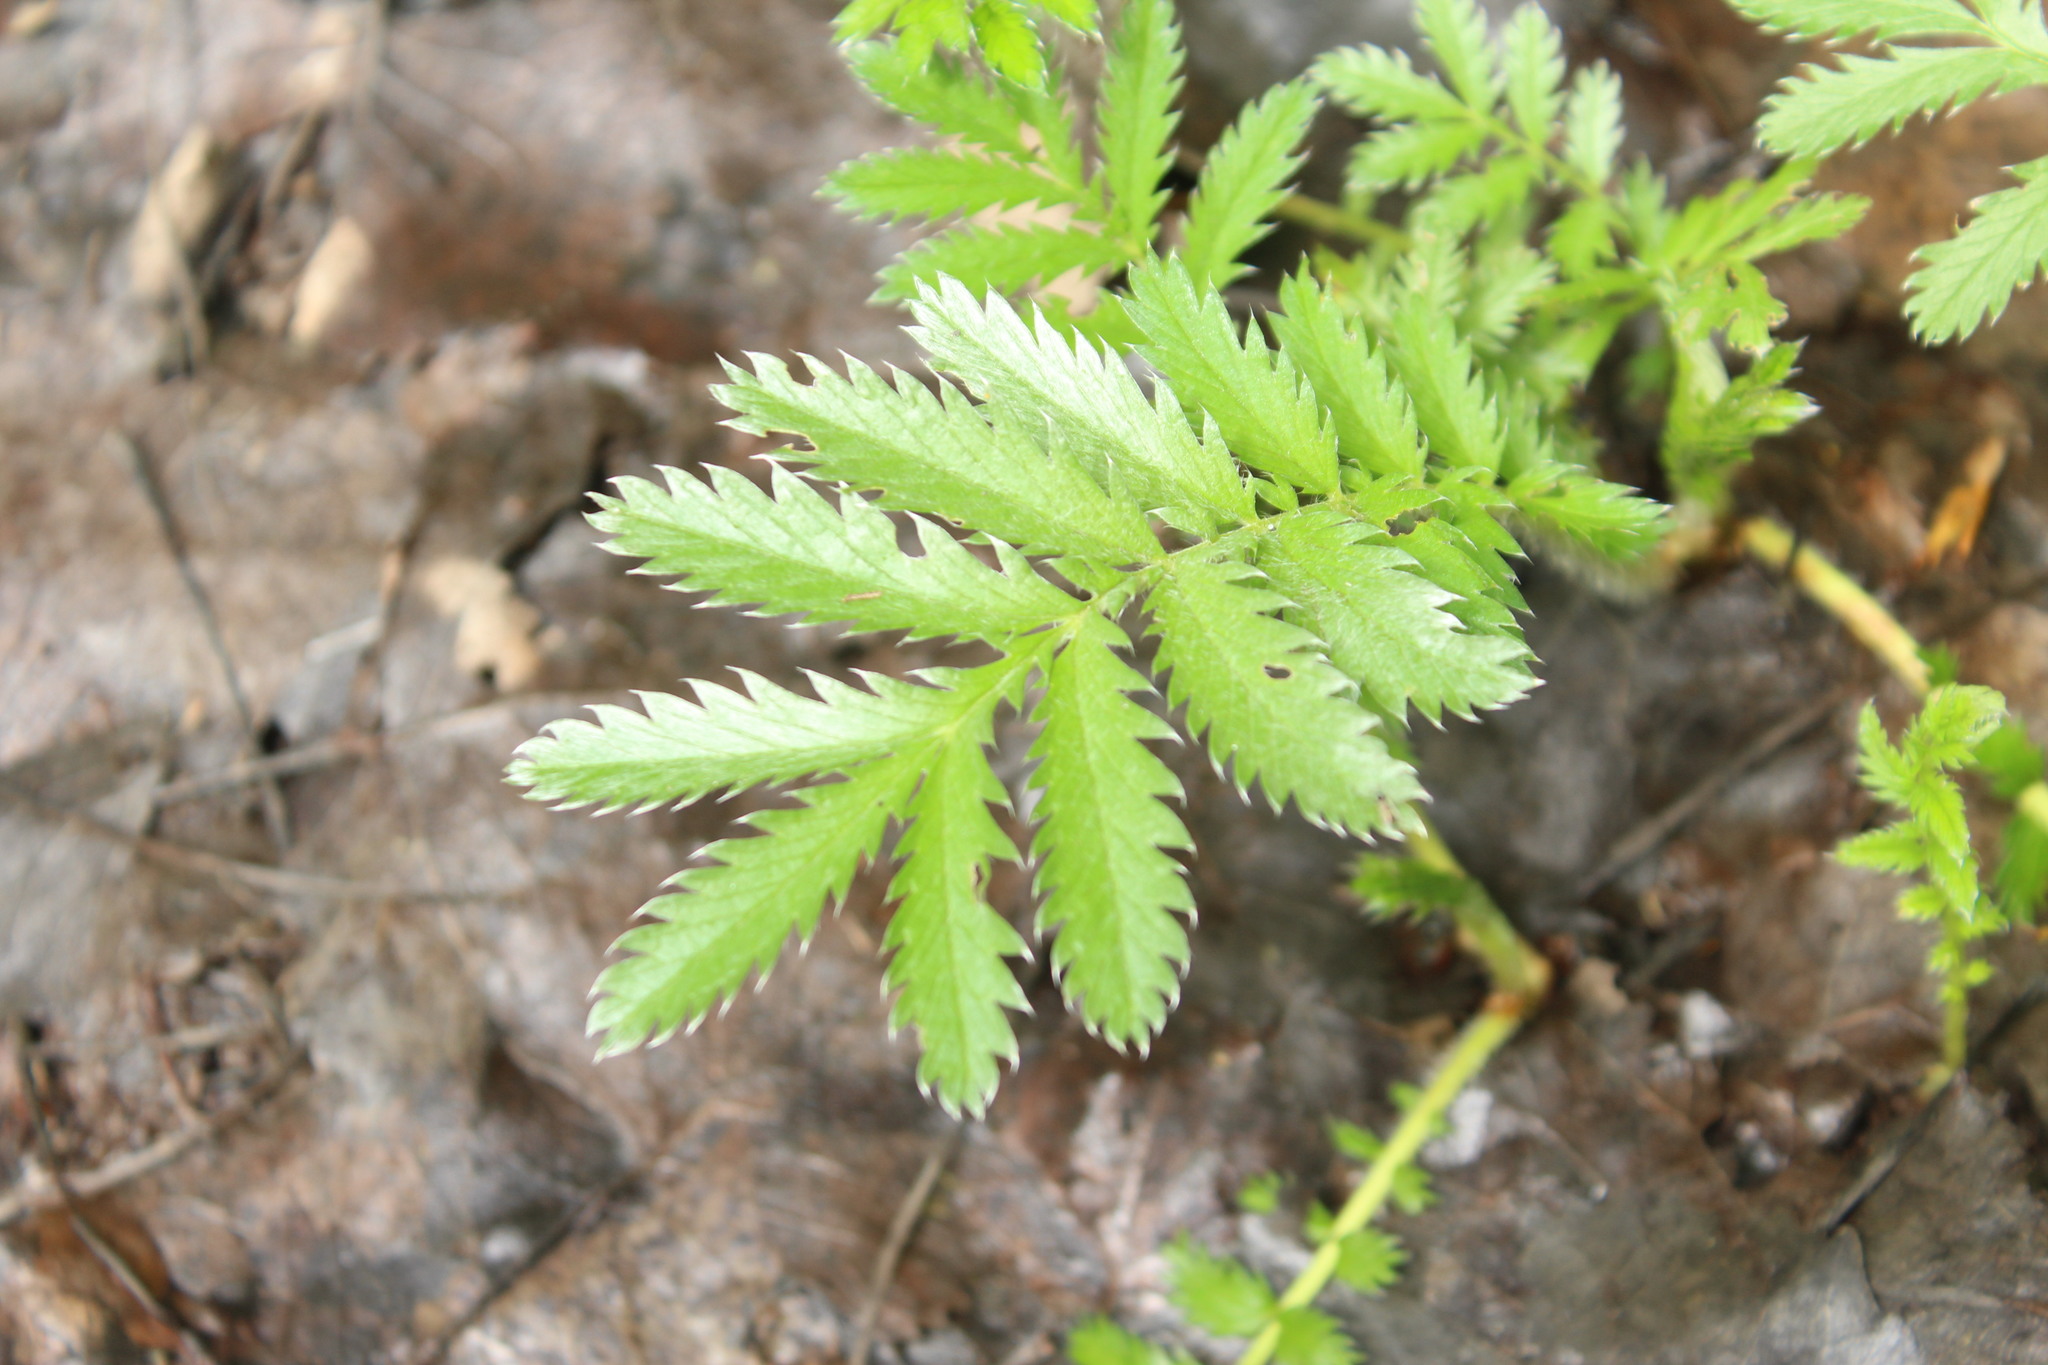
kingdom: Plantae
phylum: Tracheophyta
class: Magnoliopsida
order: Rosales
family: Rosaceae
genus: Argentina
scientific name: Argentina anserina
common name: Common silverweed
